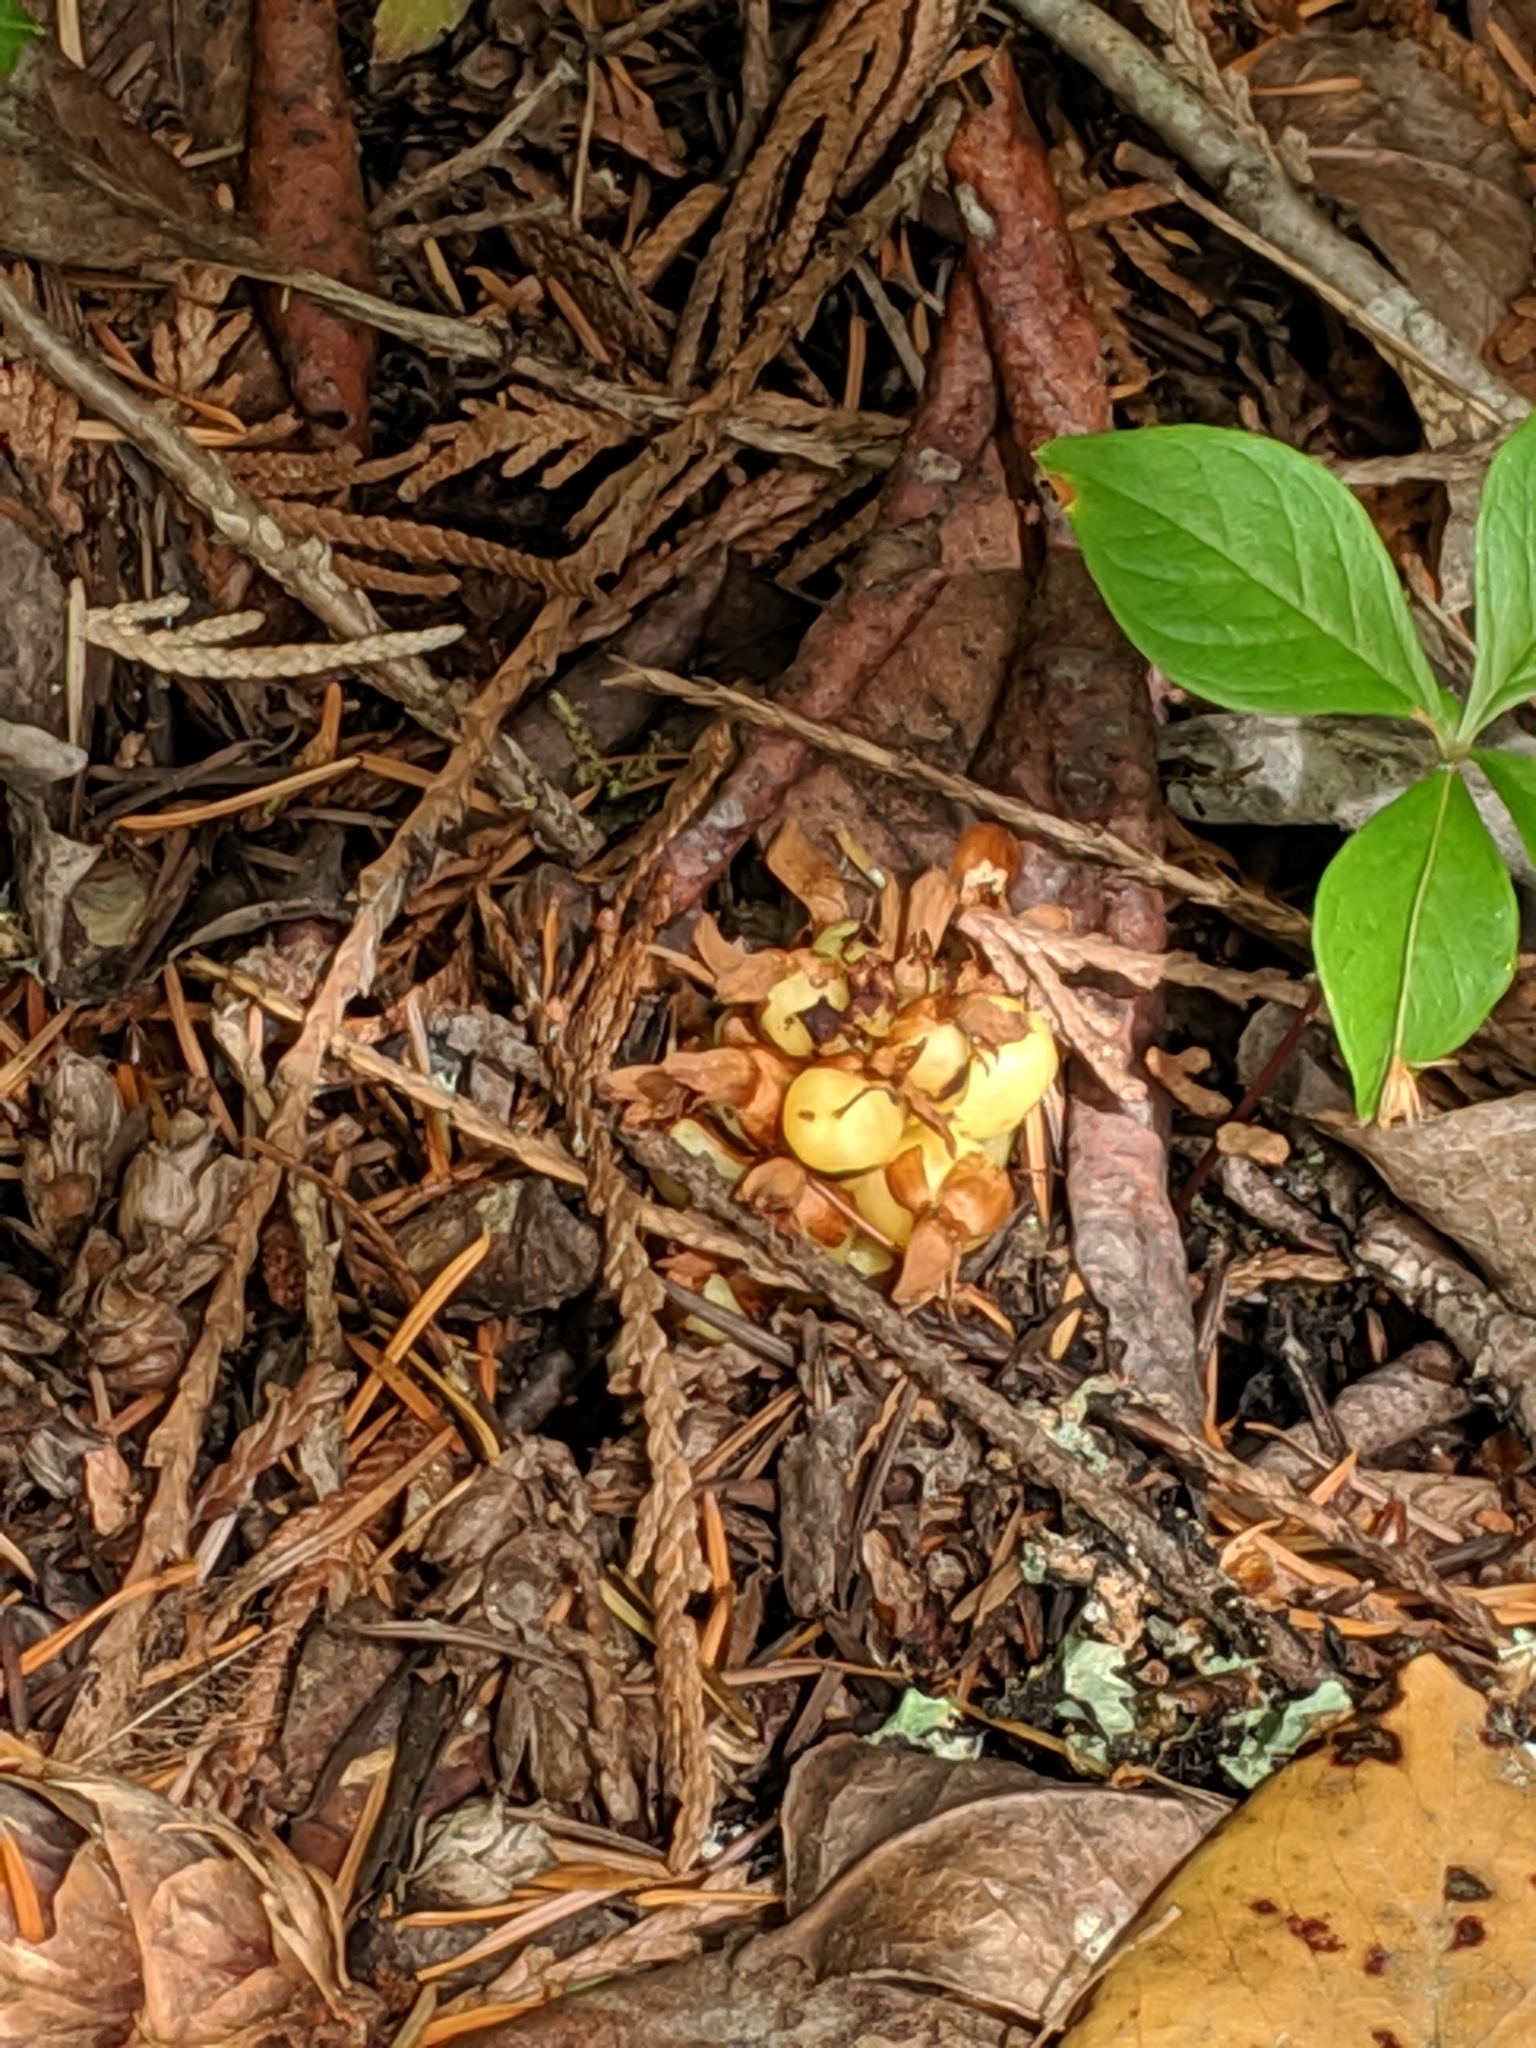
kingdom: Plantae
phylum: Tracheophyta
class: Magnoliopsida
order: Lamiales
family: Orobanchaceae
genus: Kopsiopsis
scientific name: Kopsiopsis hookeri
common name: Hooker's groundcone
